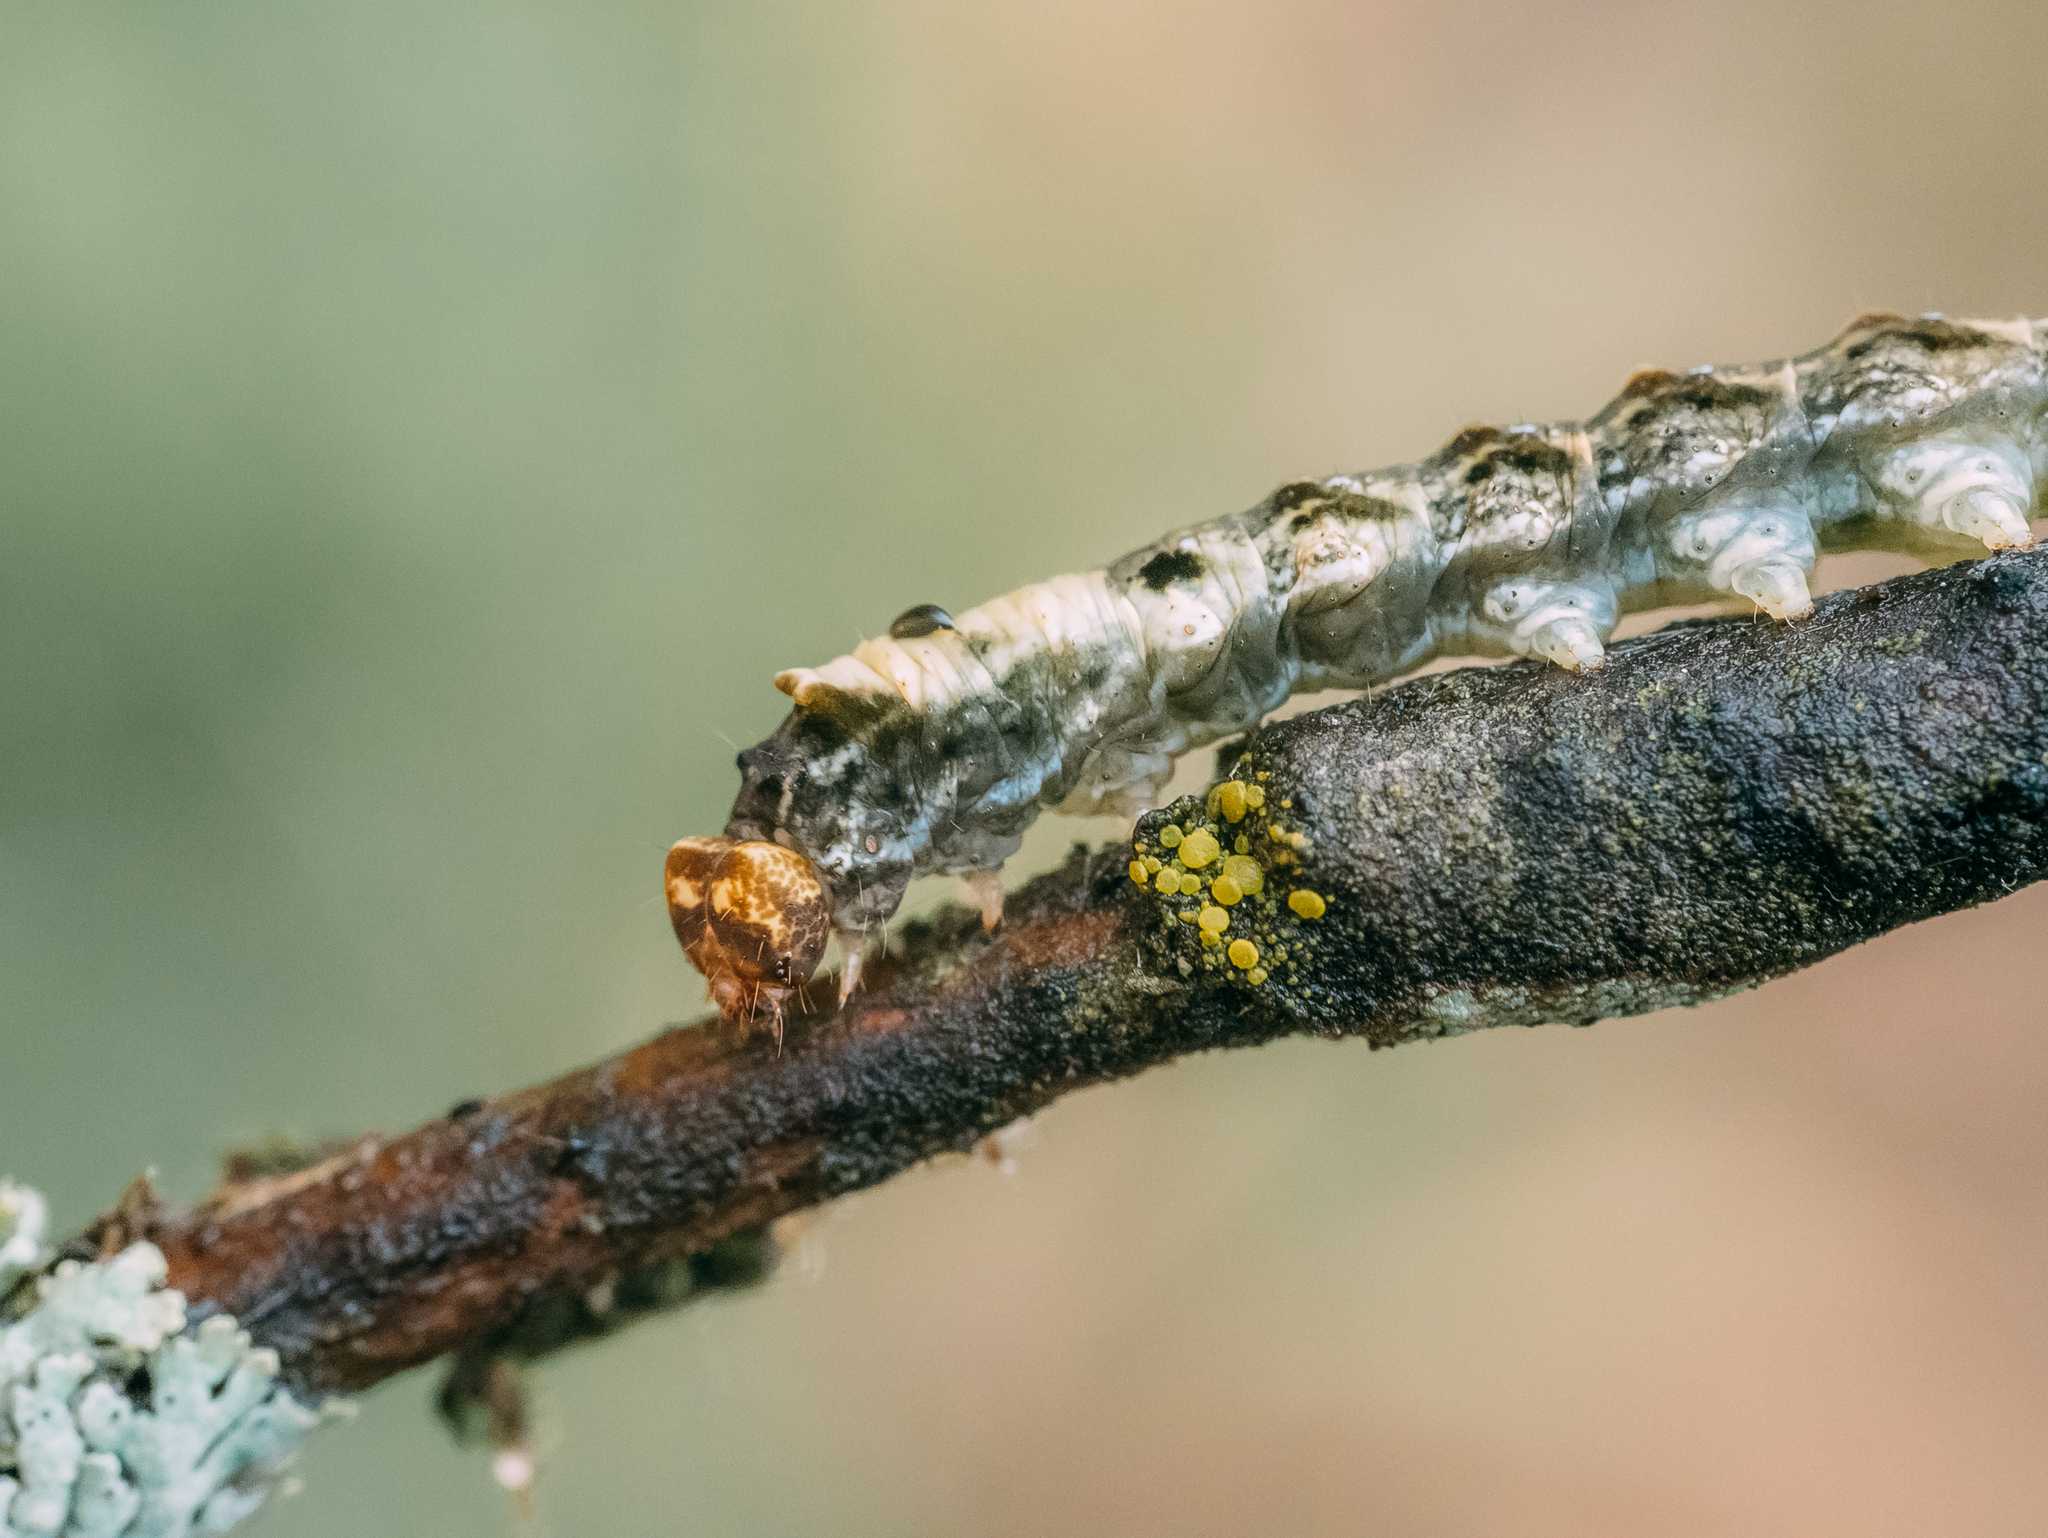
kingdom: Animalia
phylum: Arthropoda
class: Insecta
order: Lepidoptera
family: Drepanidae
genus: Thyatira
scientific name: Thyatira batis
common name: Peach blossom
